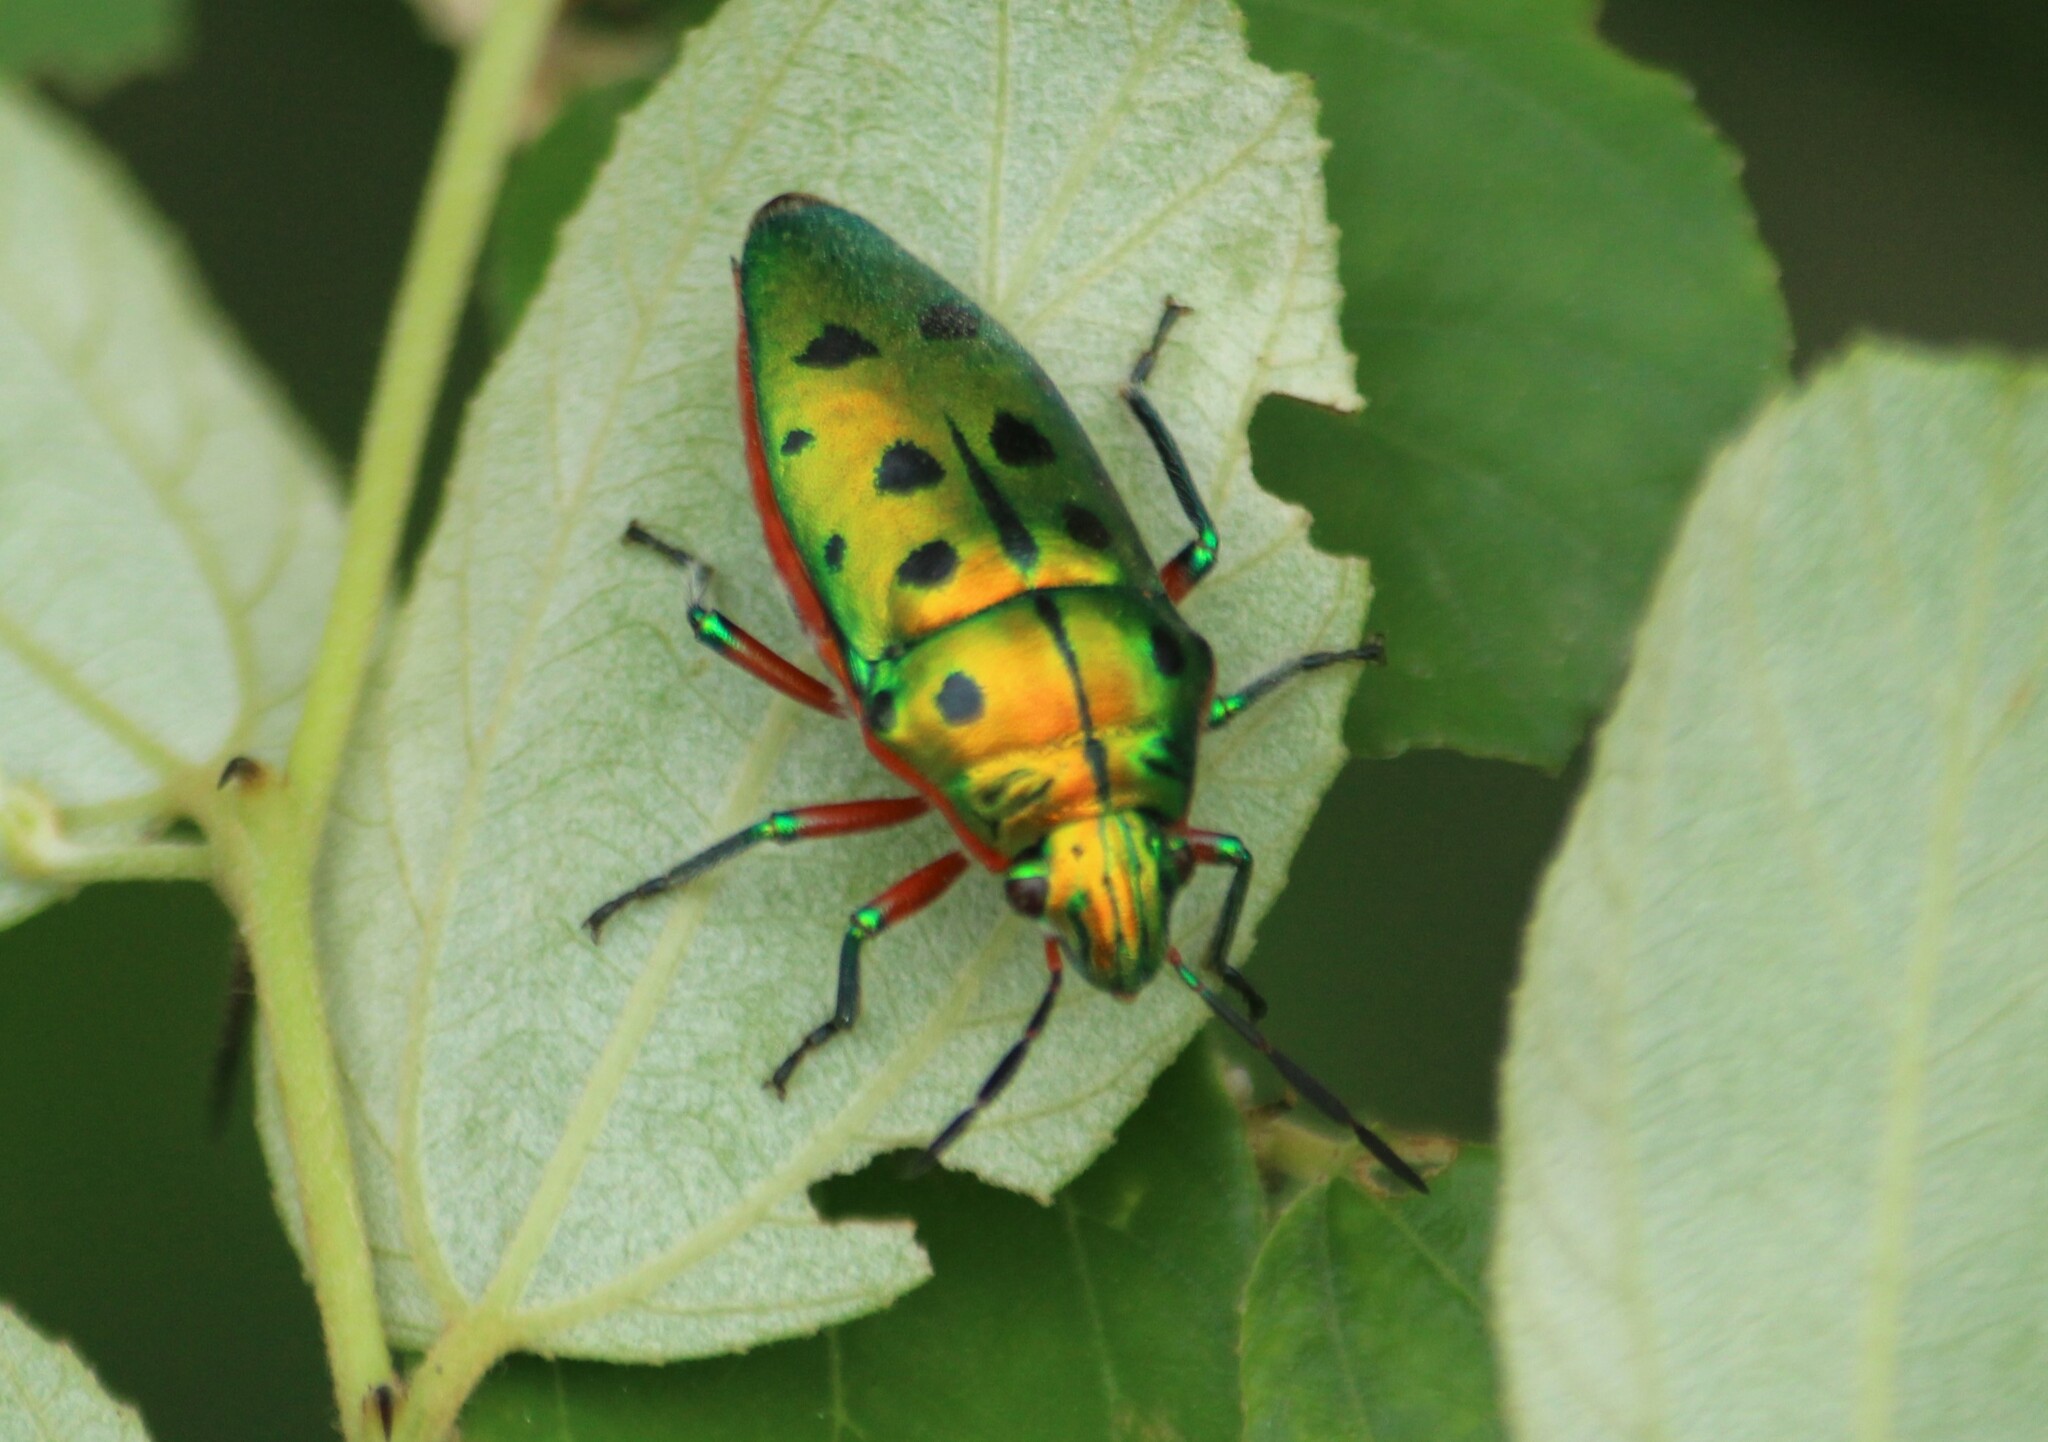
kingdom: Animalia
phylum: Arthropoda
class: Insecta
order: Hemiptera
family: Scutelleridae
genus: Scutellera
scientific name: Scutellera perplexa
